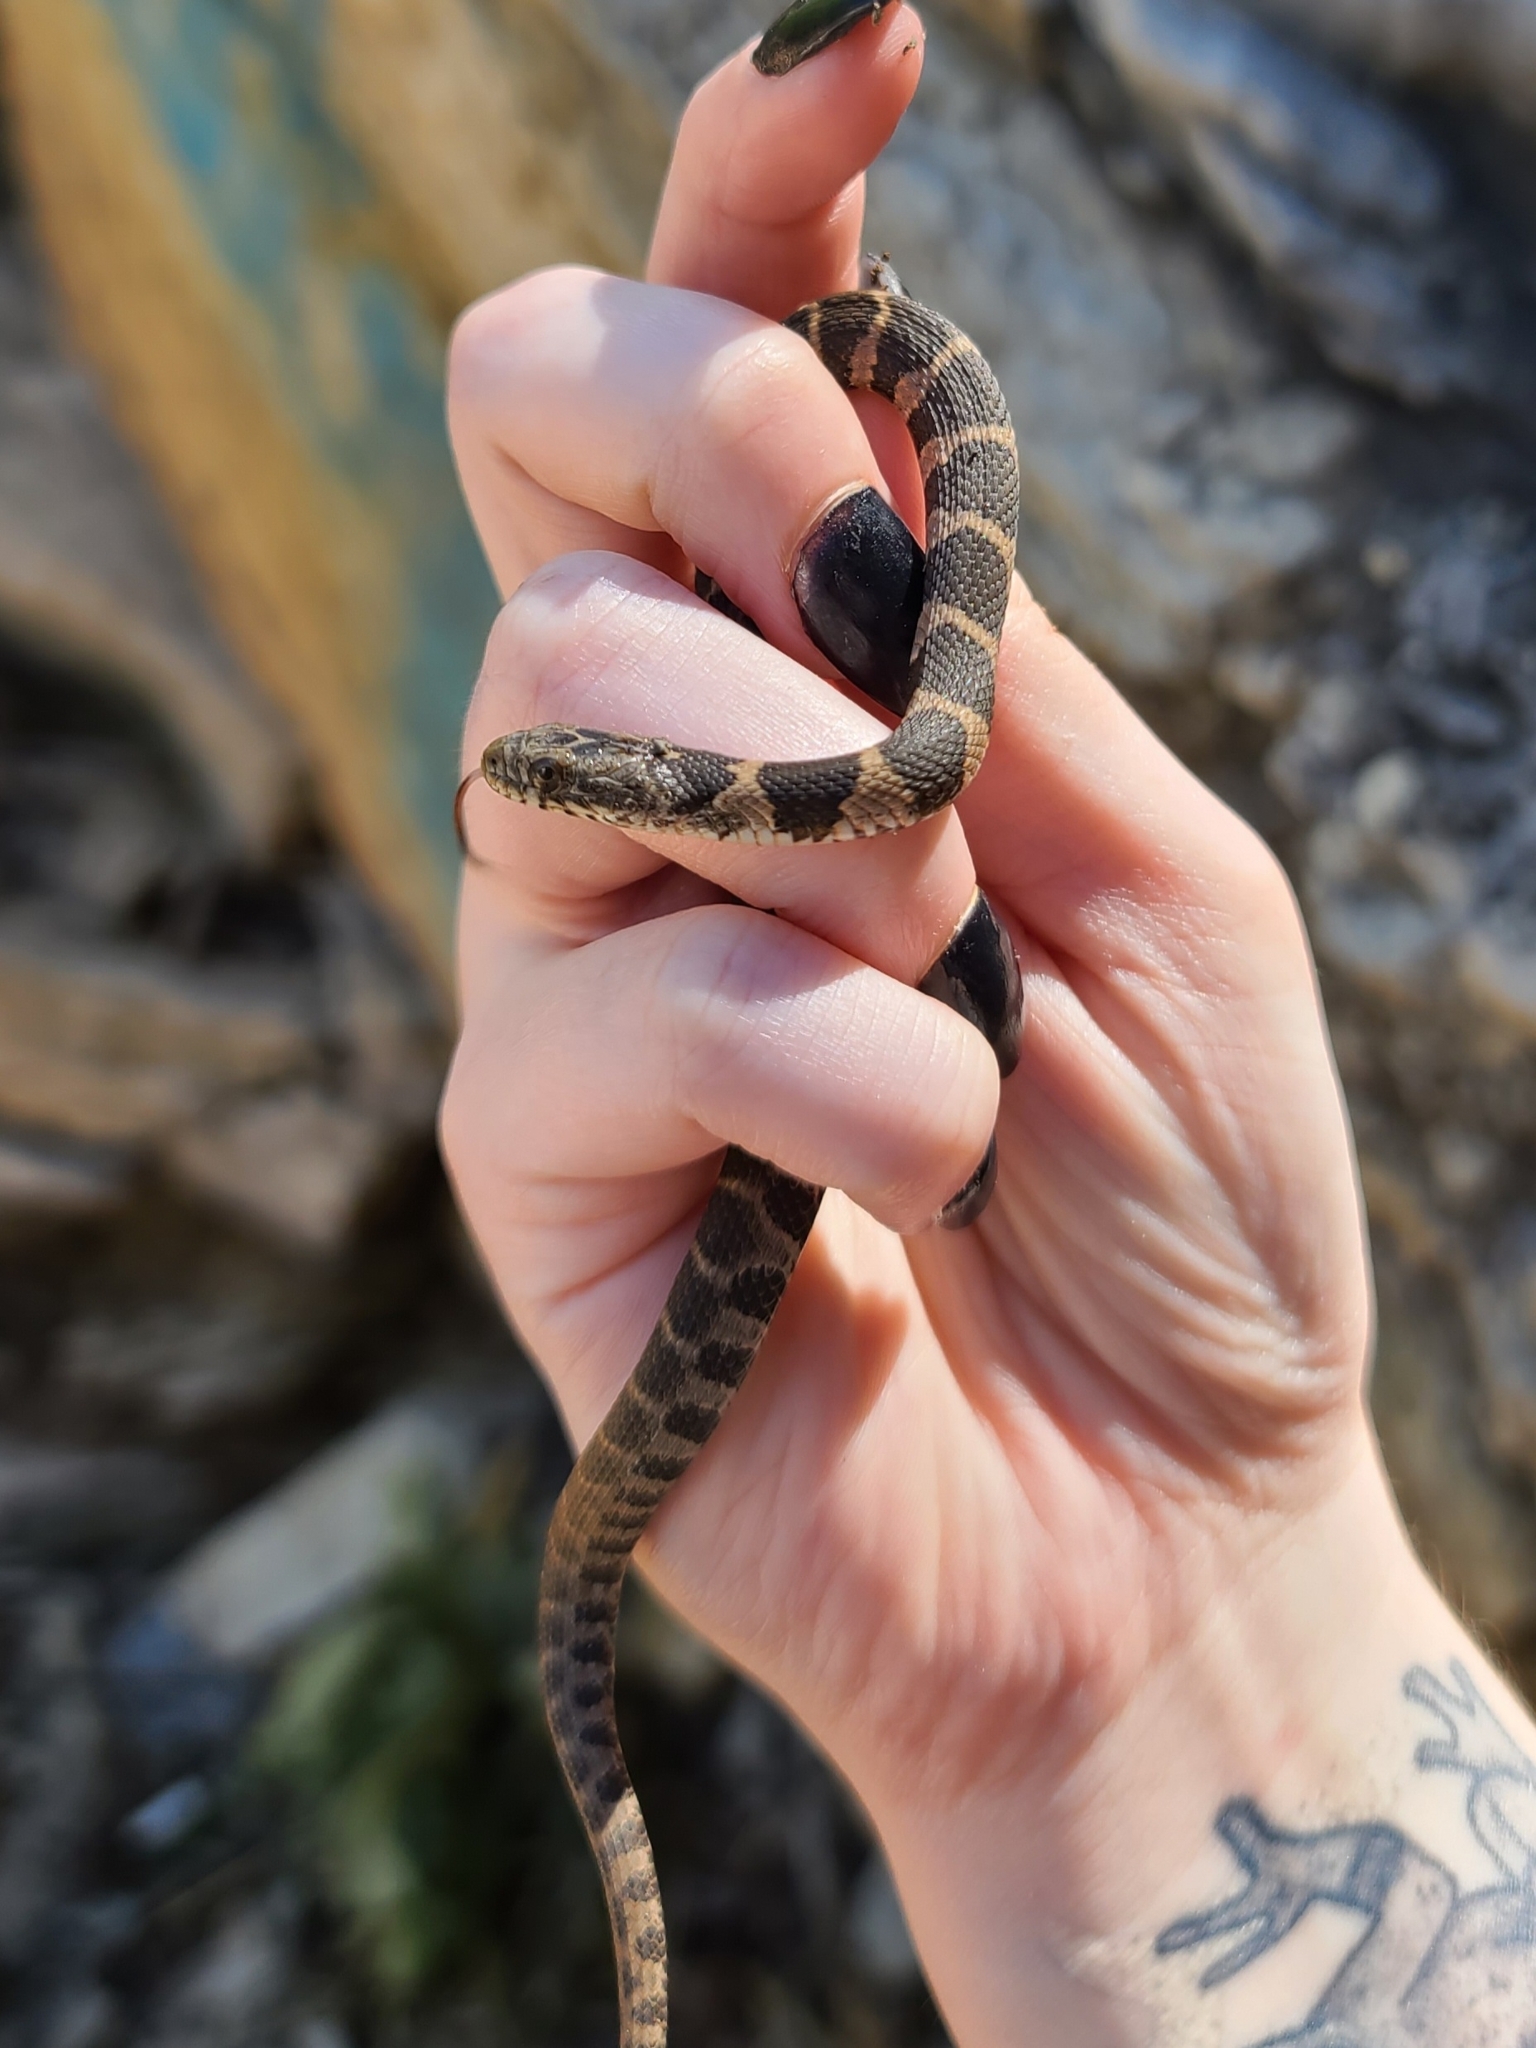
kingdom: Animalia
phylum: Chordata
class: Squamata
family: Colubridae
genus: Nerodia
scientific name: Nerodia sipedon
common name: Northern water snake
